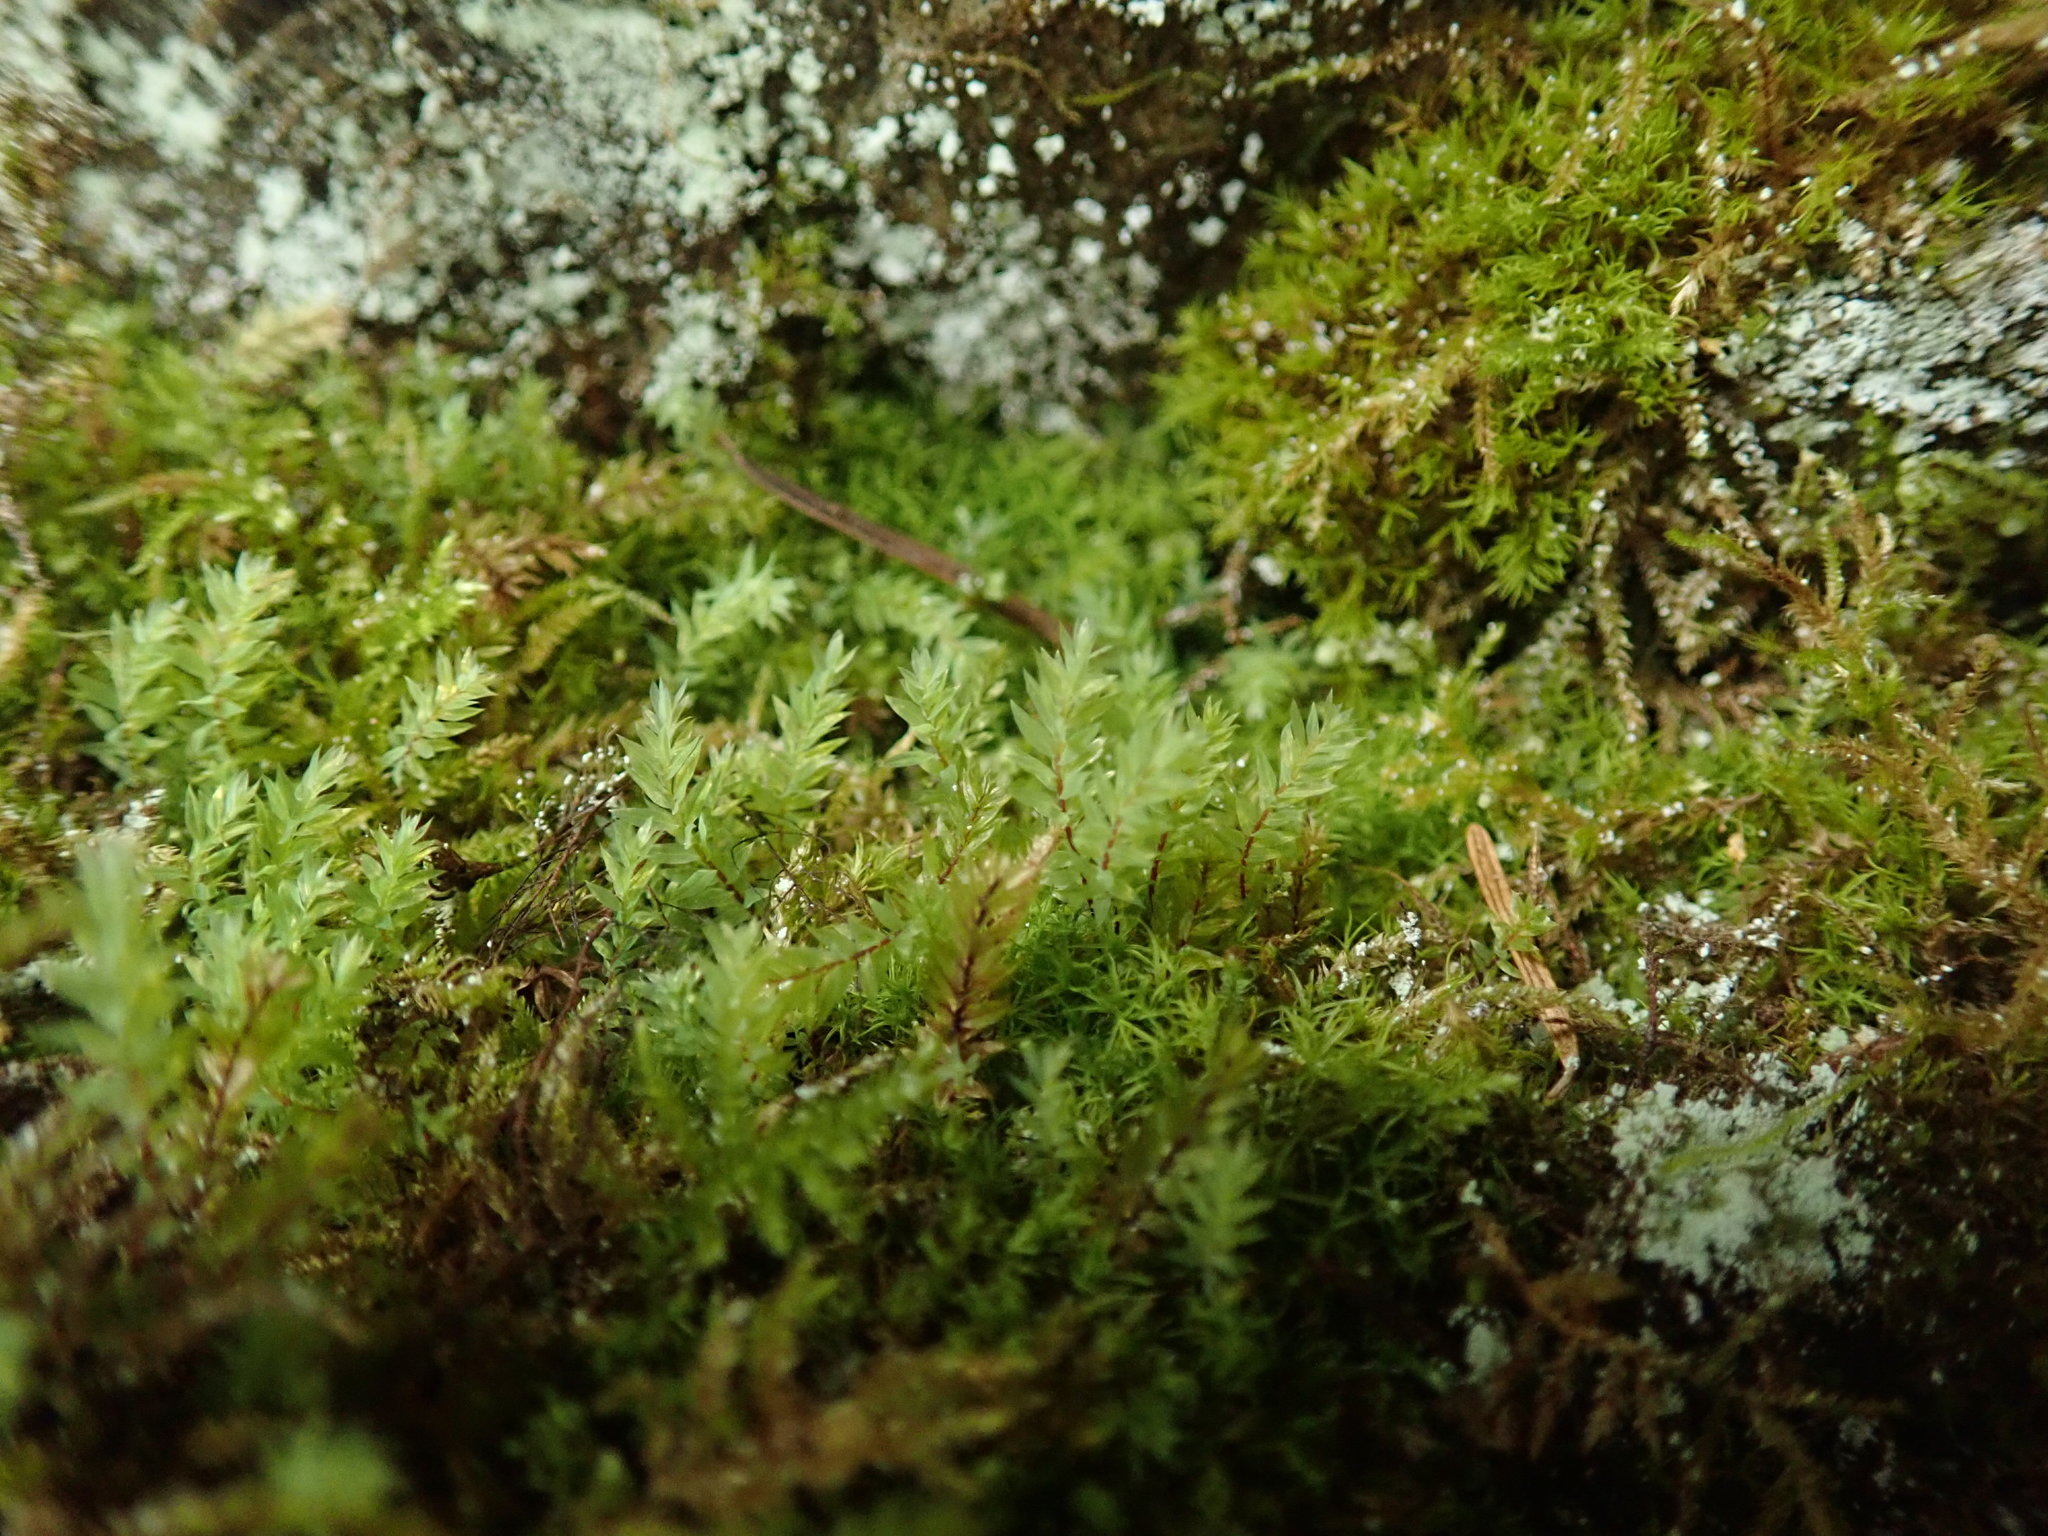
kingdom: Plantae
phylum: Bryophyta
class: Bryopsida
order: Bryales
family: Mniaceae
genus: Pohlia
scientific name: Pohlia cruda
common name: Opal nodding moss
